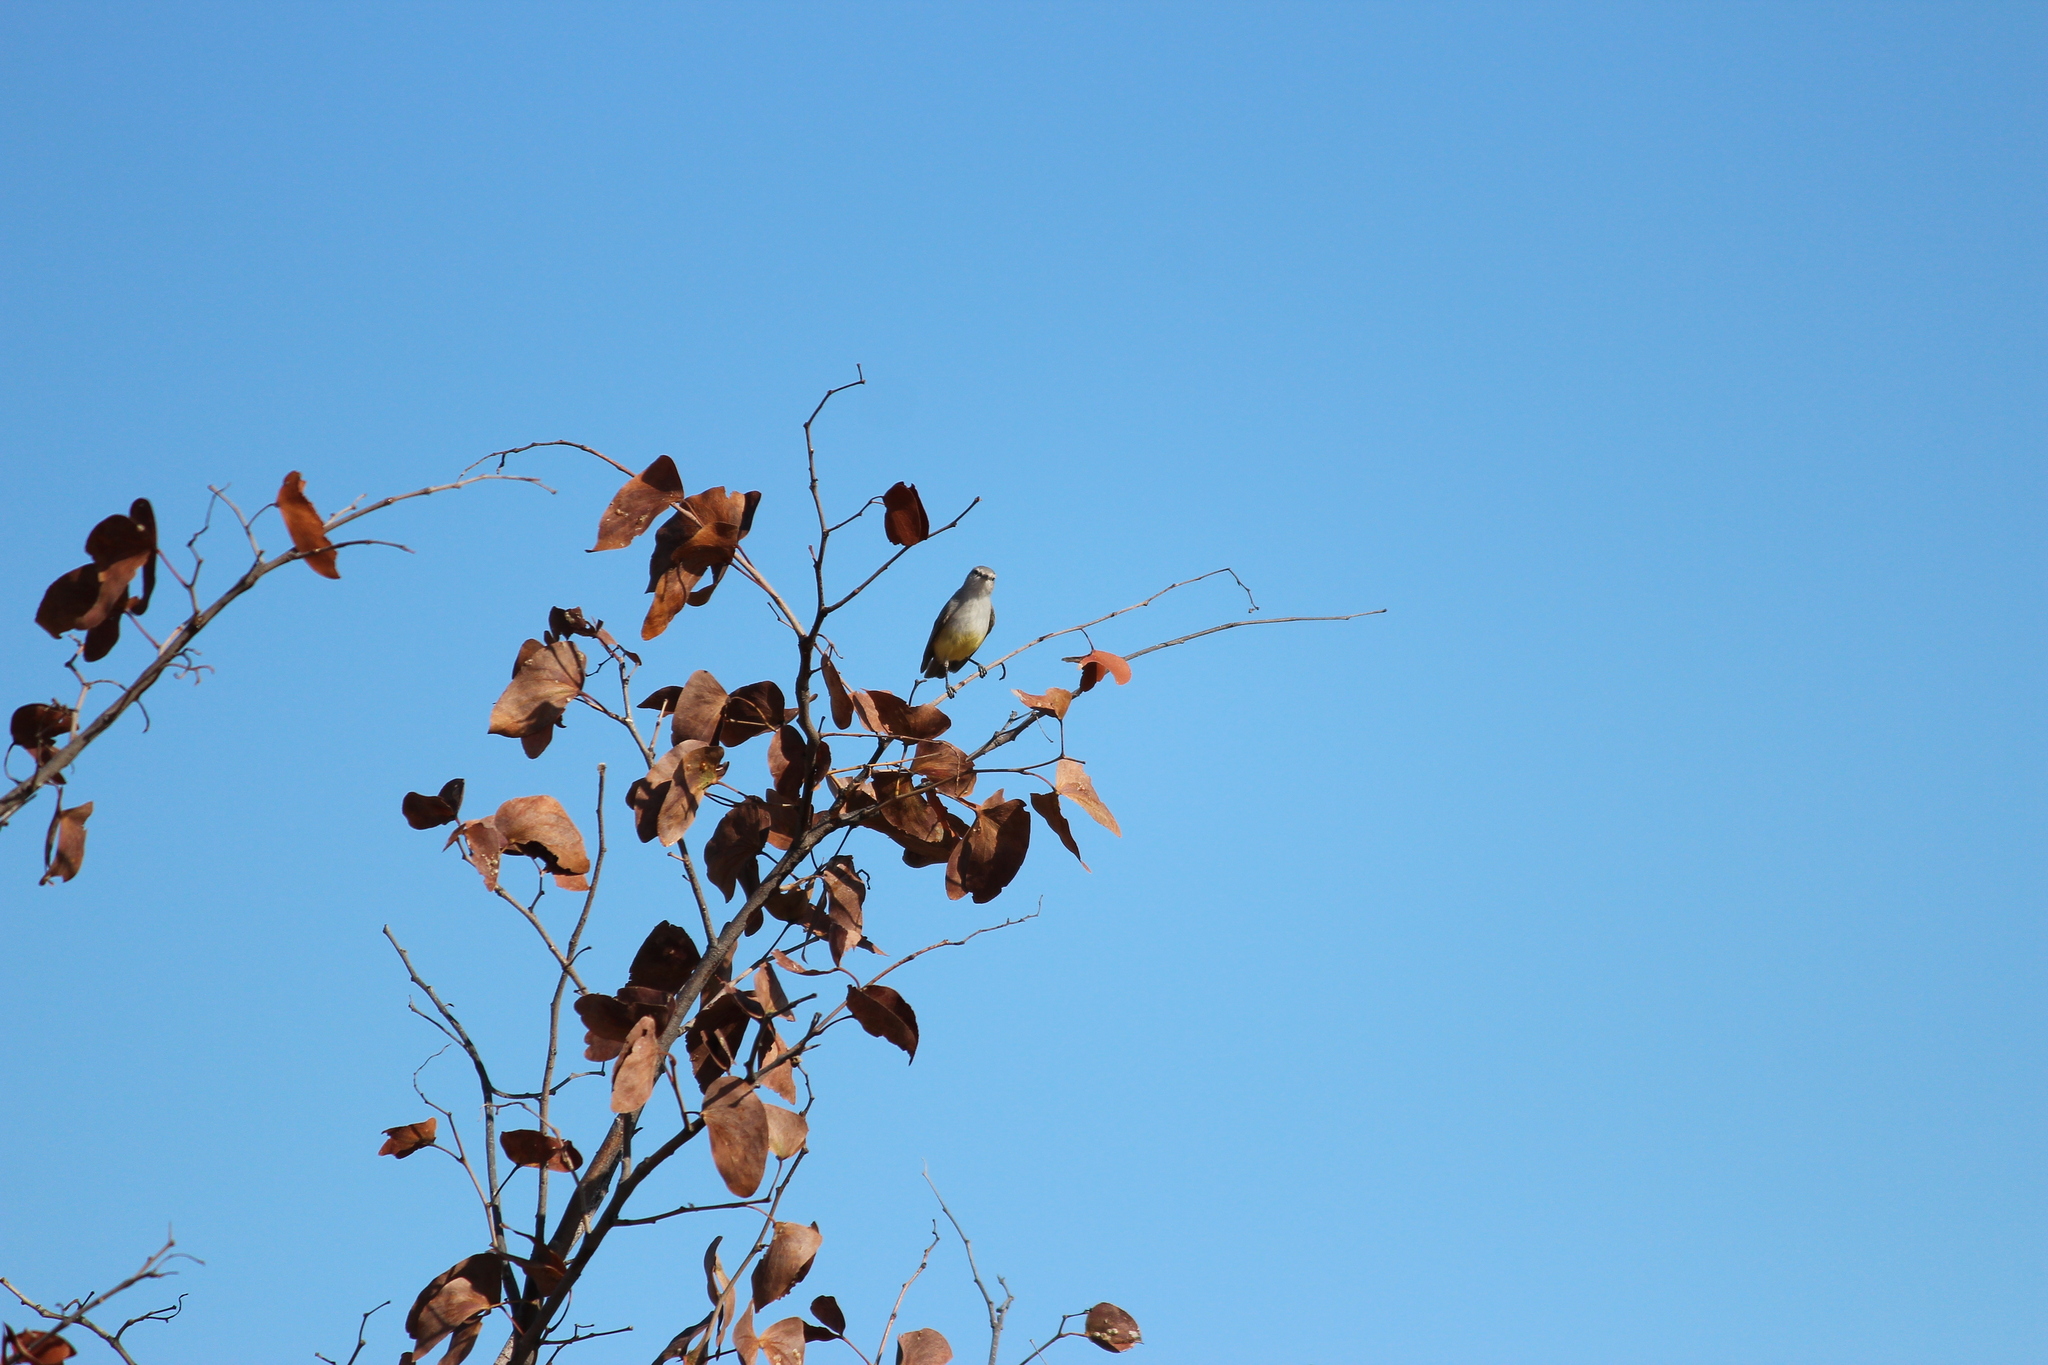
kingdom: Animalia
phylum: Chordata
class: Aves
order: Passeriformes
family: Cisticolidae
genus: Eremomela
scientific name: Eremomela icteropygialis
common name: Yellow-bellied eremomela
